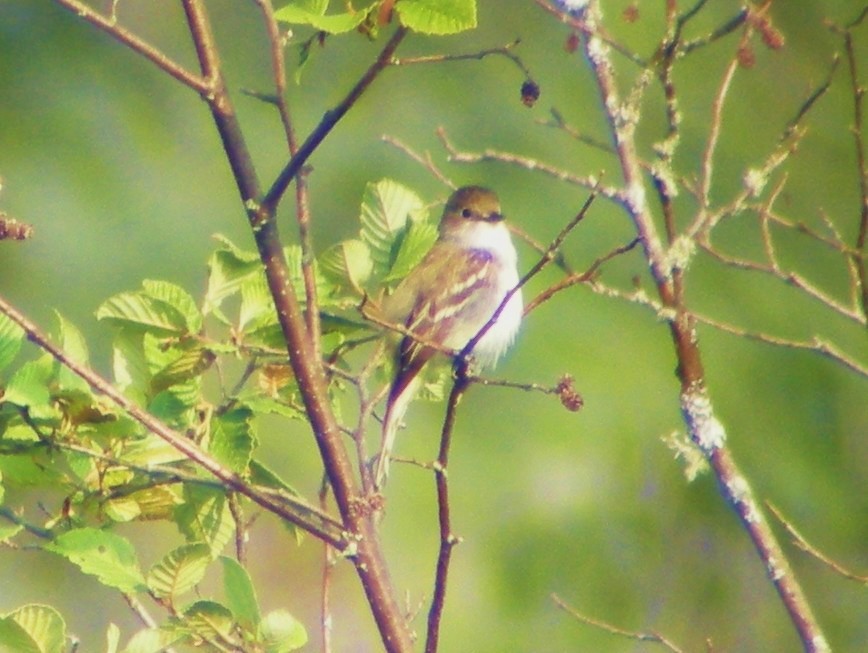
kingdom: Animalia
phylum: Chordata
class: Aves
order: Passeriformes
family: Tyrannidae
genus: Empidonax
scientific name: Empidonax alnorum
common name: Alder flycatcher
